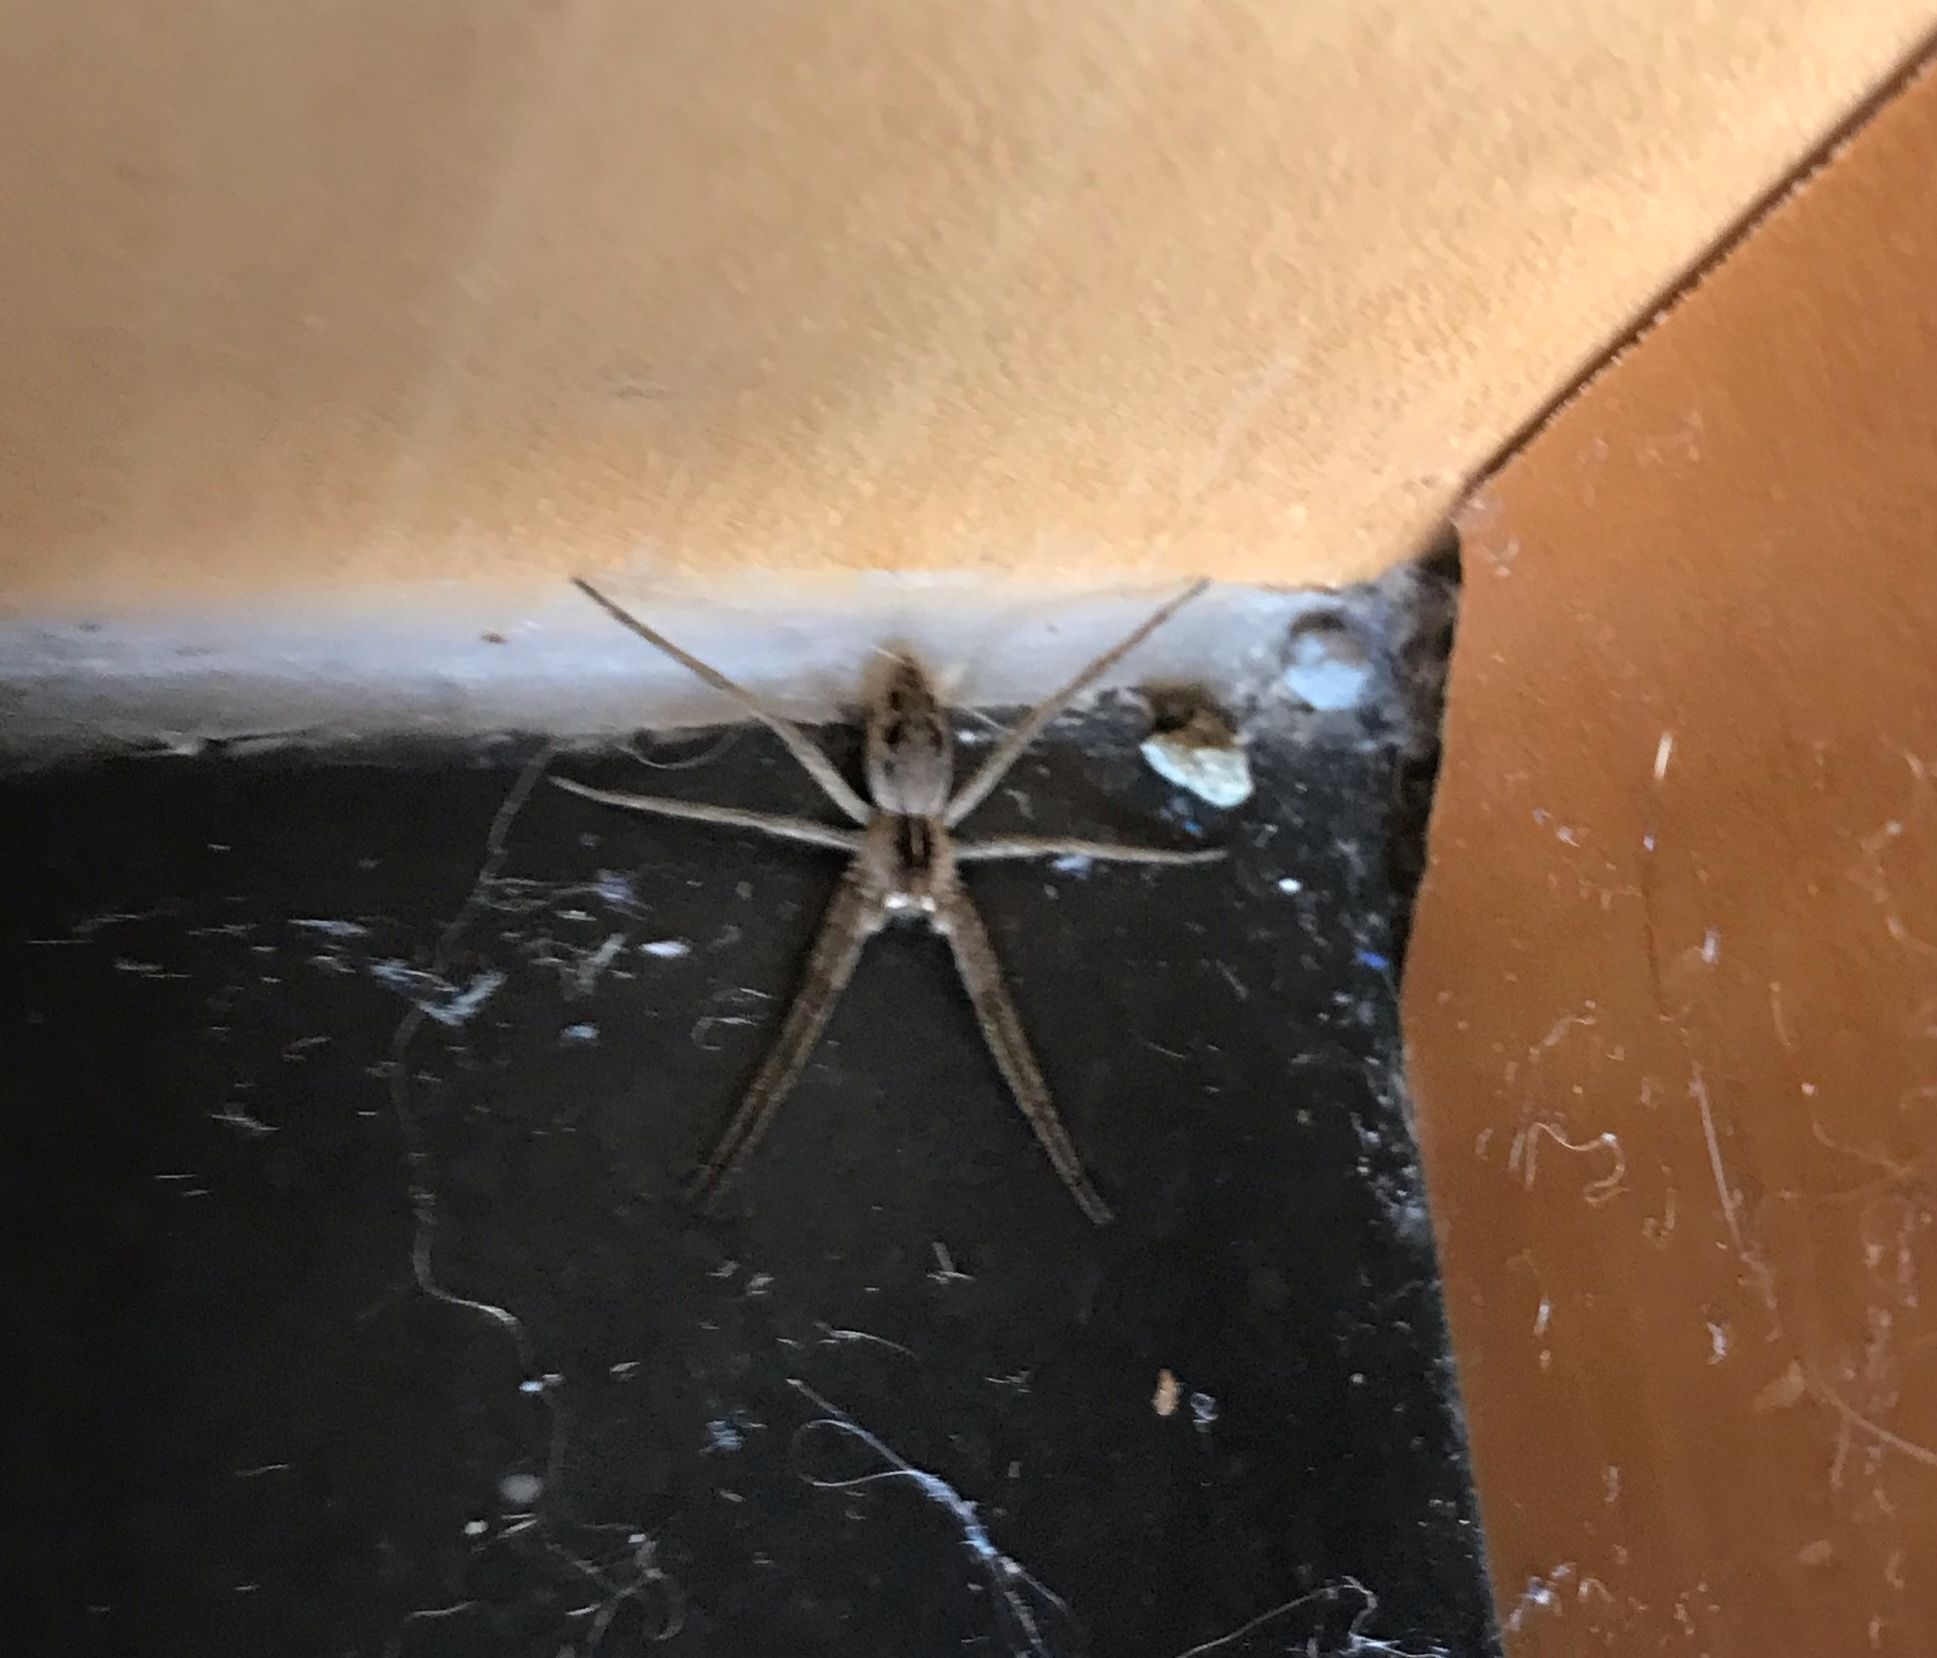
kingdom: Animalia
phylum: Arthropoda
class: Arachnida
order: Araneae
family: Pisauridae
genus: Pisaura
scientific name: Pisaura mirabilis
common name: Tent spider
